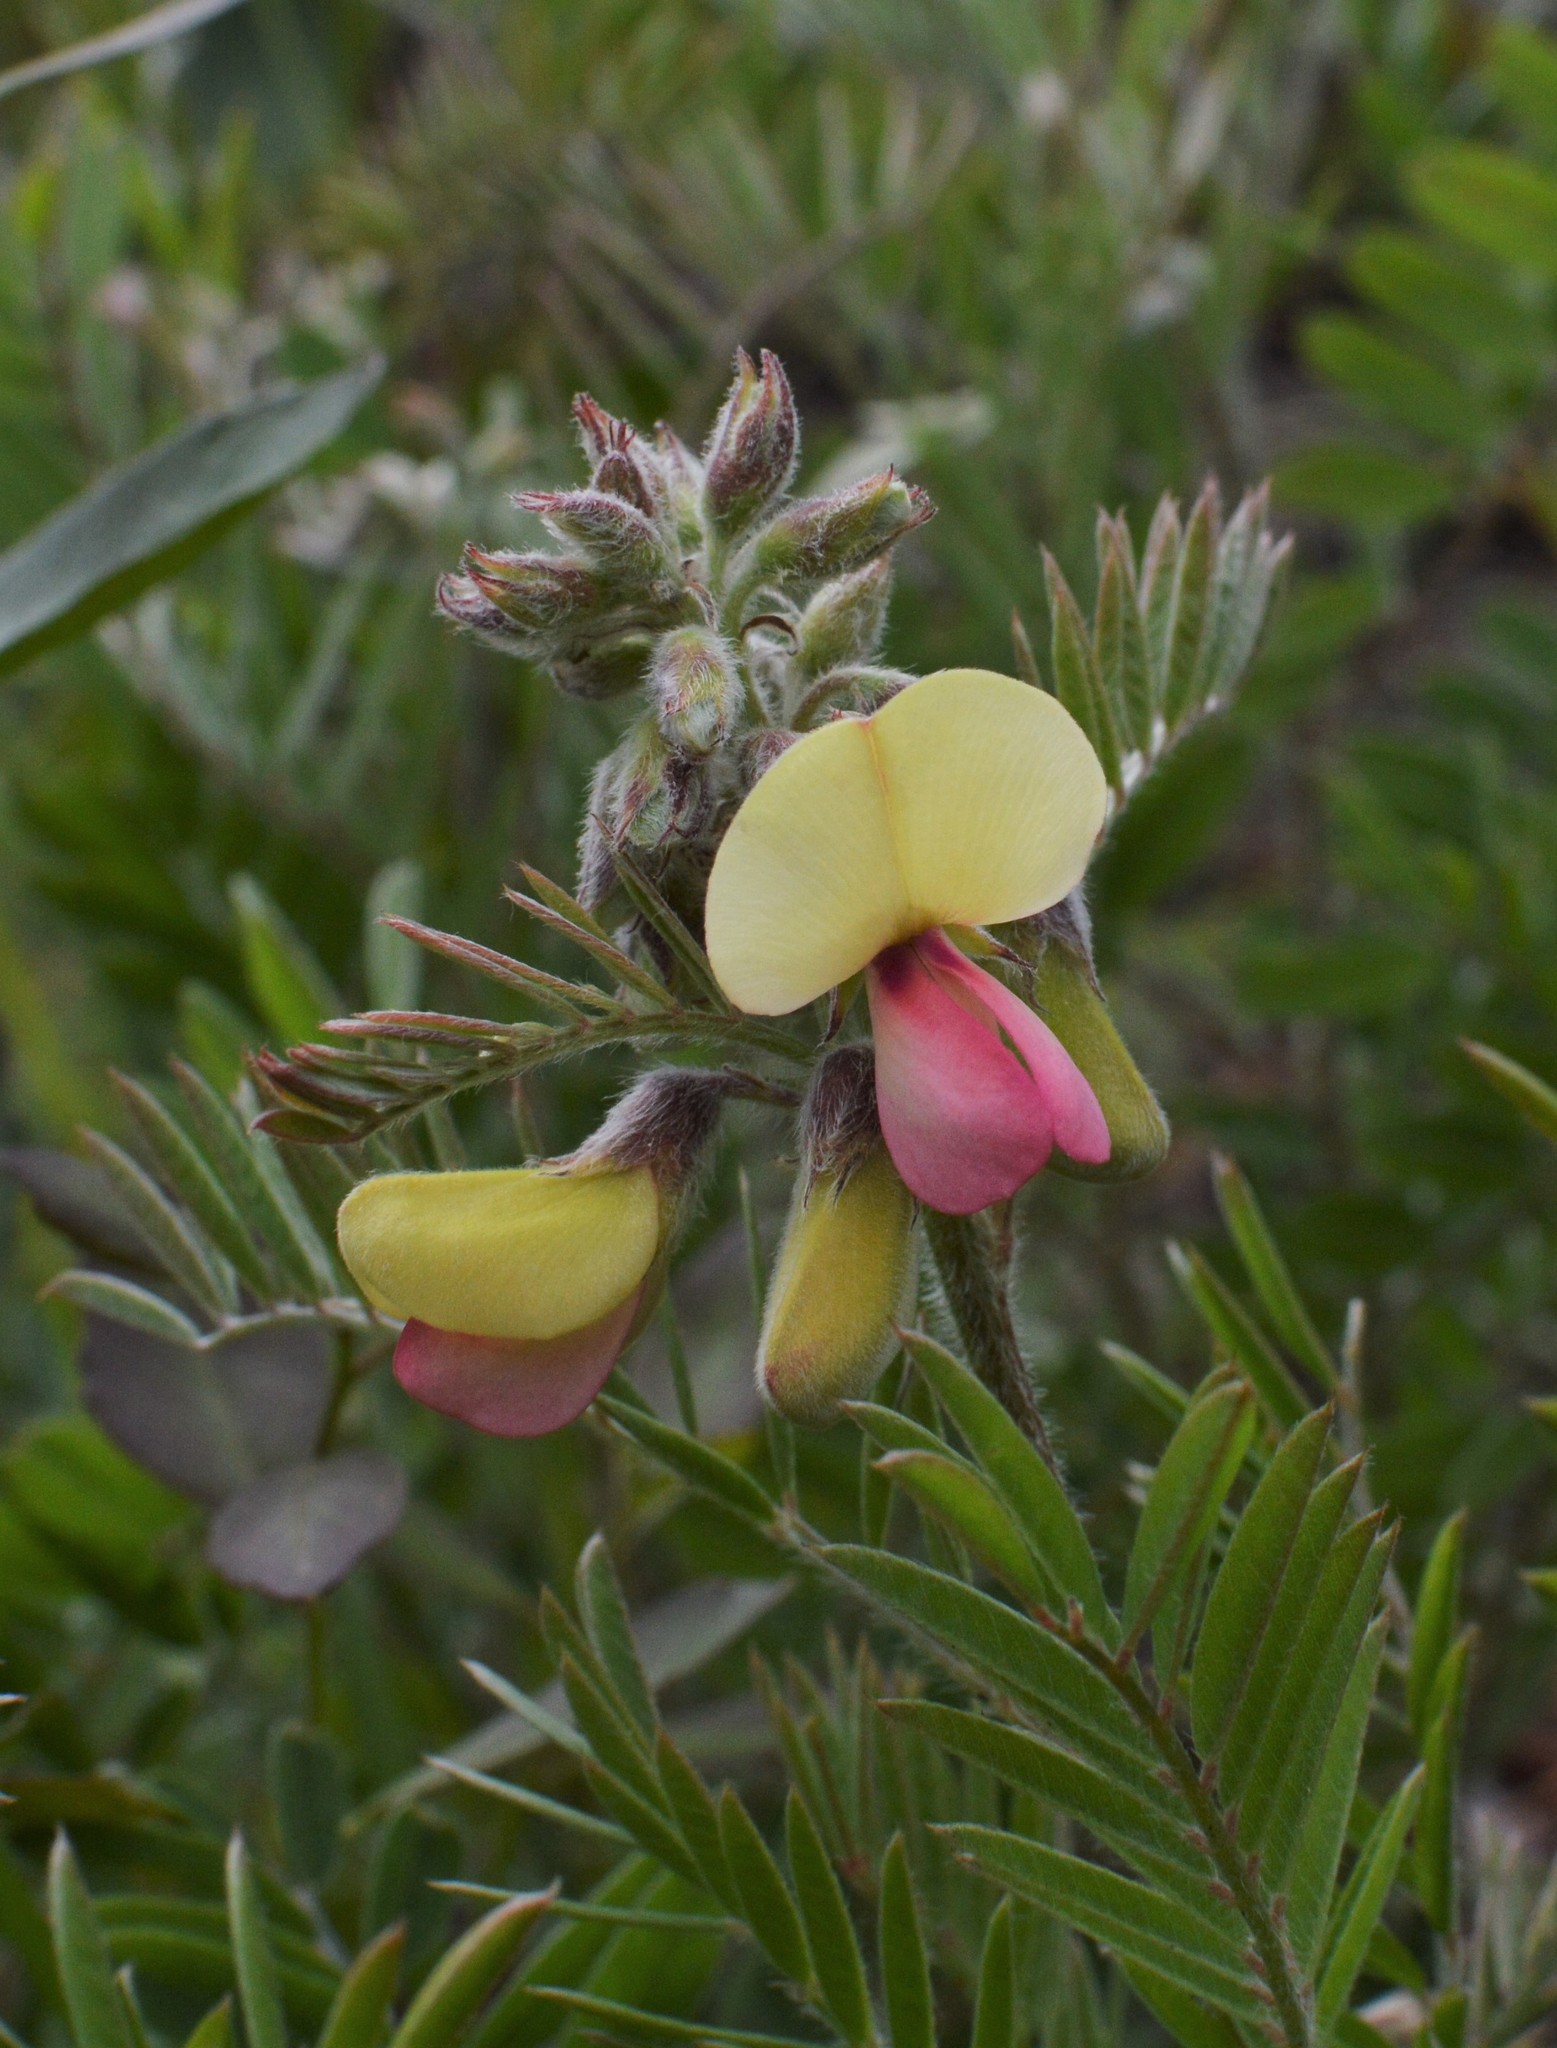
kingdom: Plantae
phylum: Tracheophyta
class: Magnoliopsida
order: Fabales
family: Fabaceae
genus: Tephrosia
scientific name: Tephrosia virginiana
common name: Rabbit-pea
